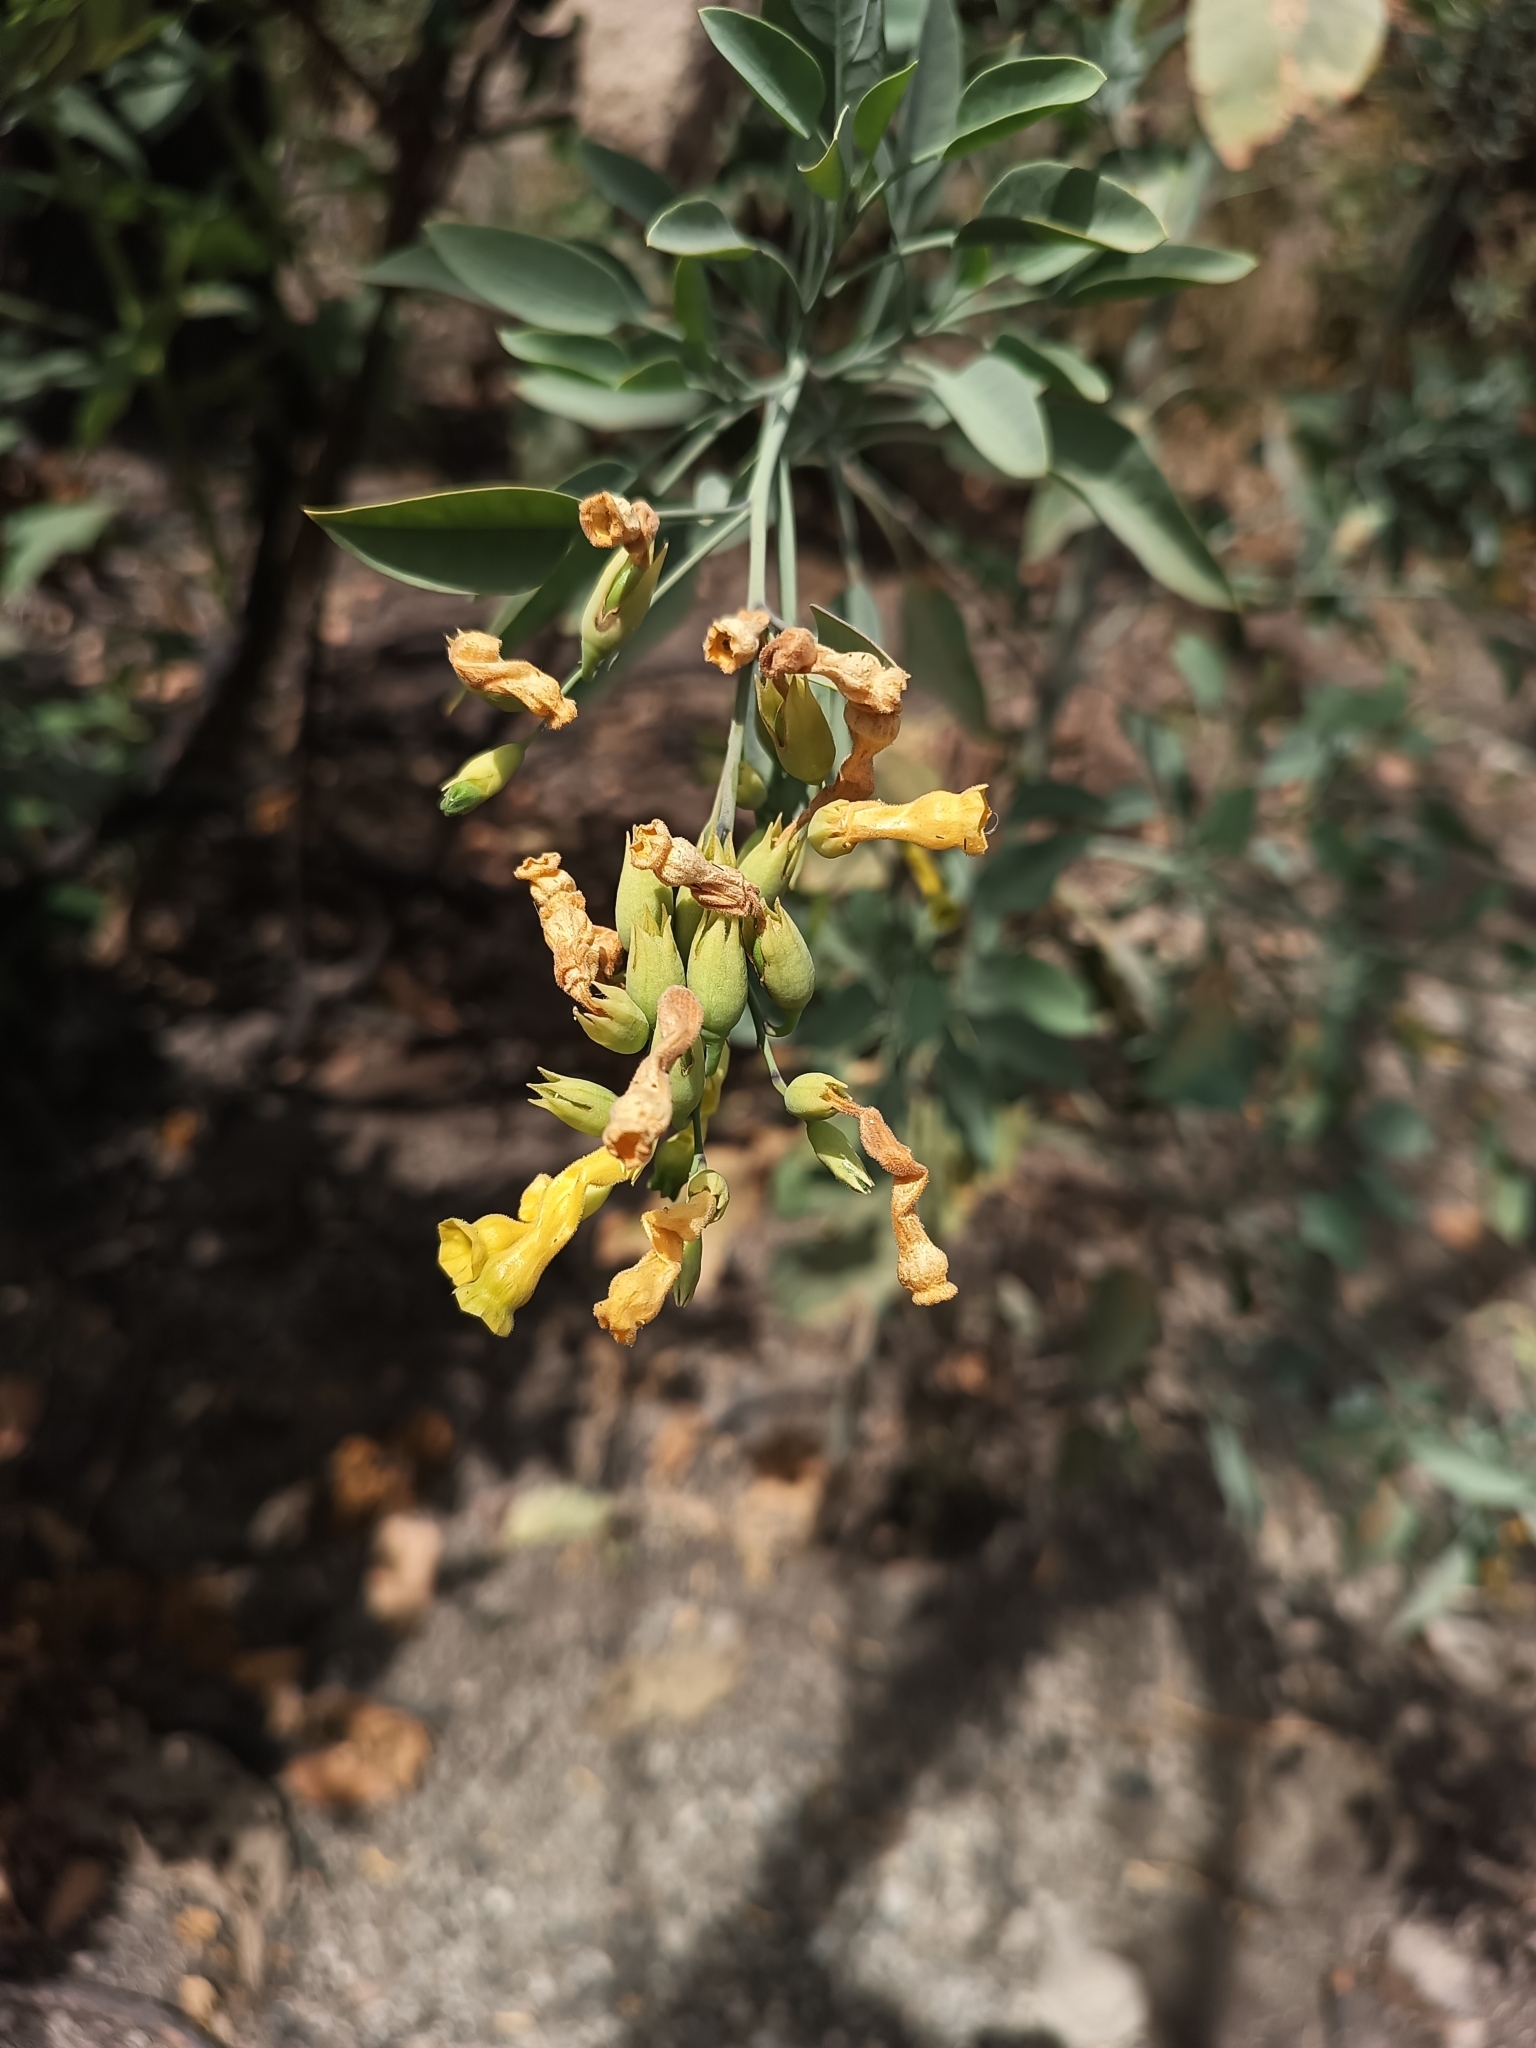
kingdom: Plantae
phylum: Tracheophyta
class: Magnoliopsida
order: Solanales
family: Solanaceae
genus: Nicotiana
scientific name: Nicotiana glauca
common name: Tree tobacco
